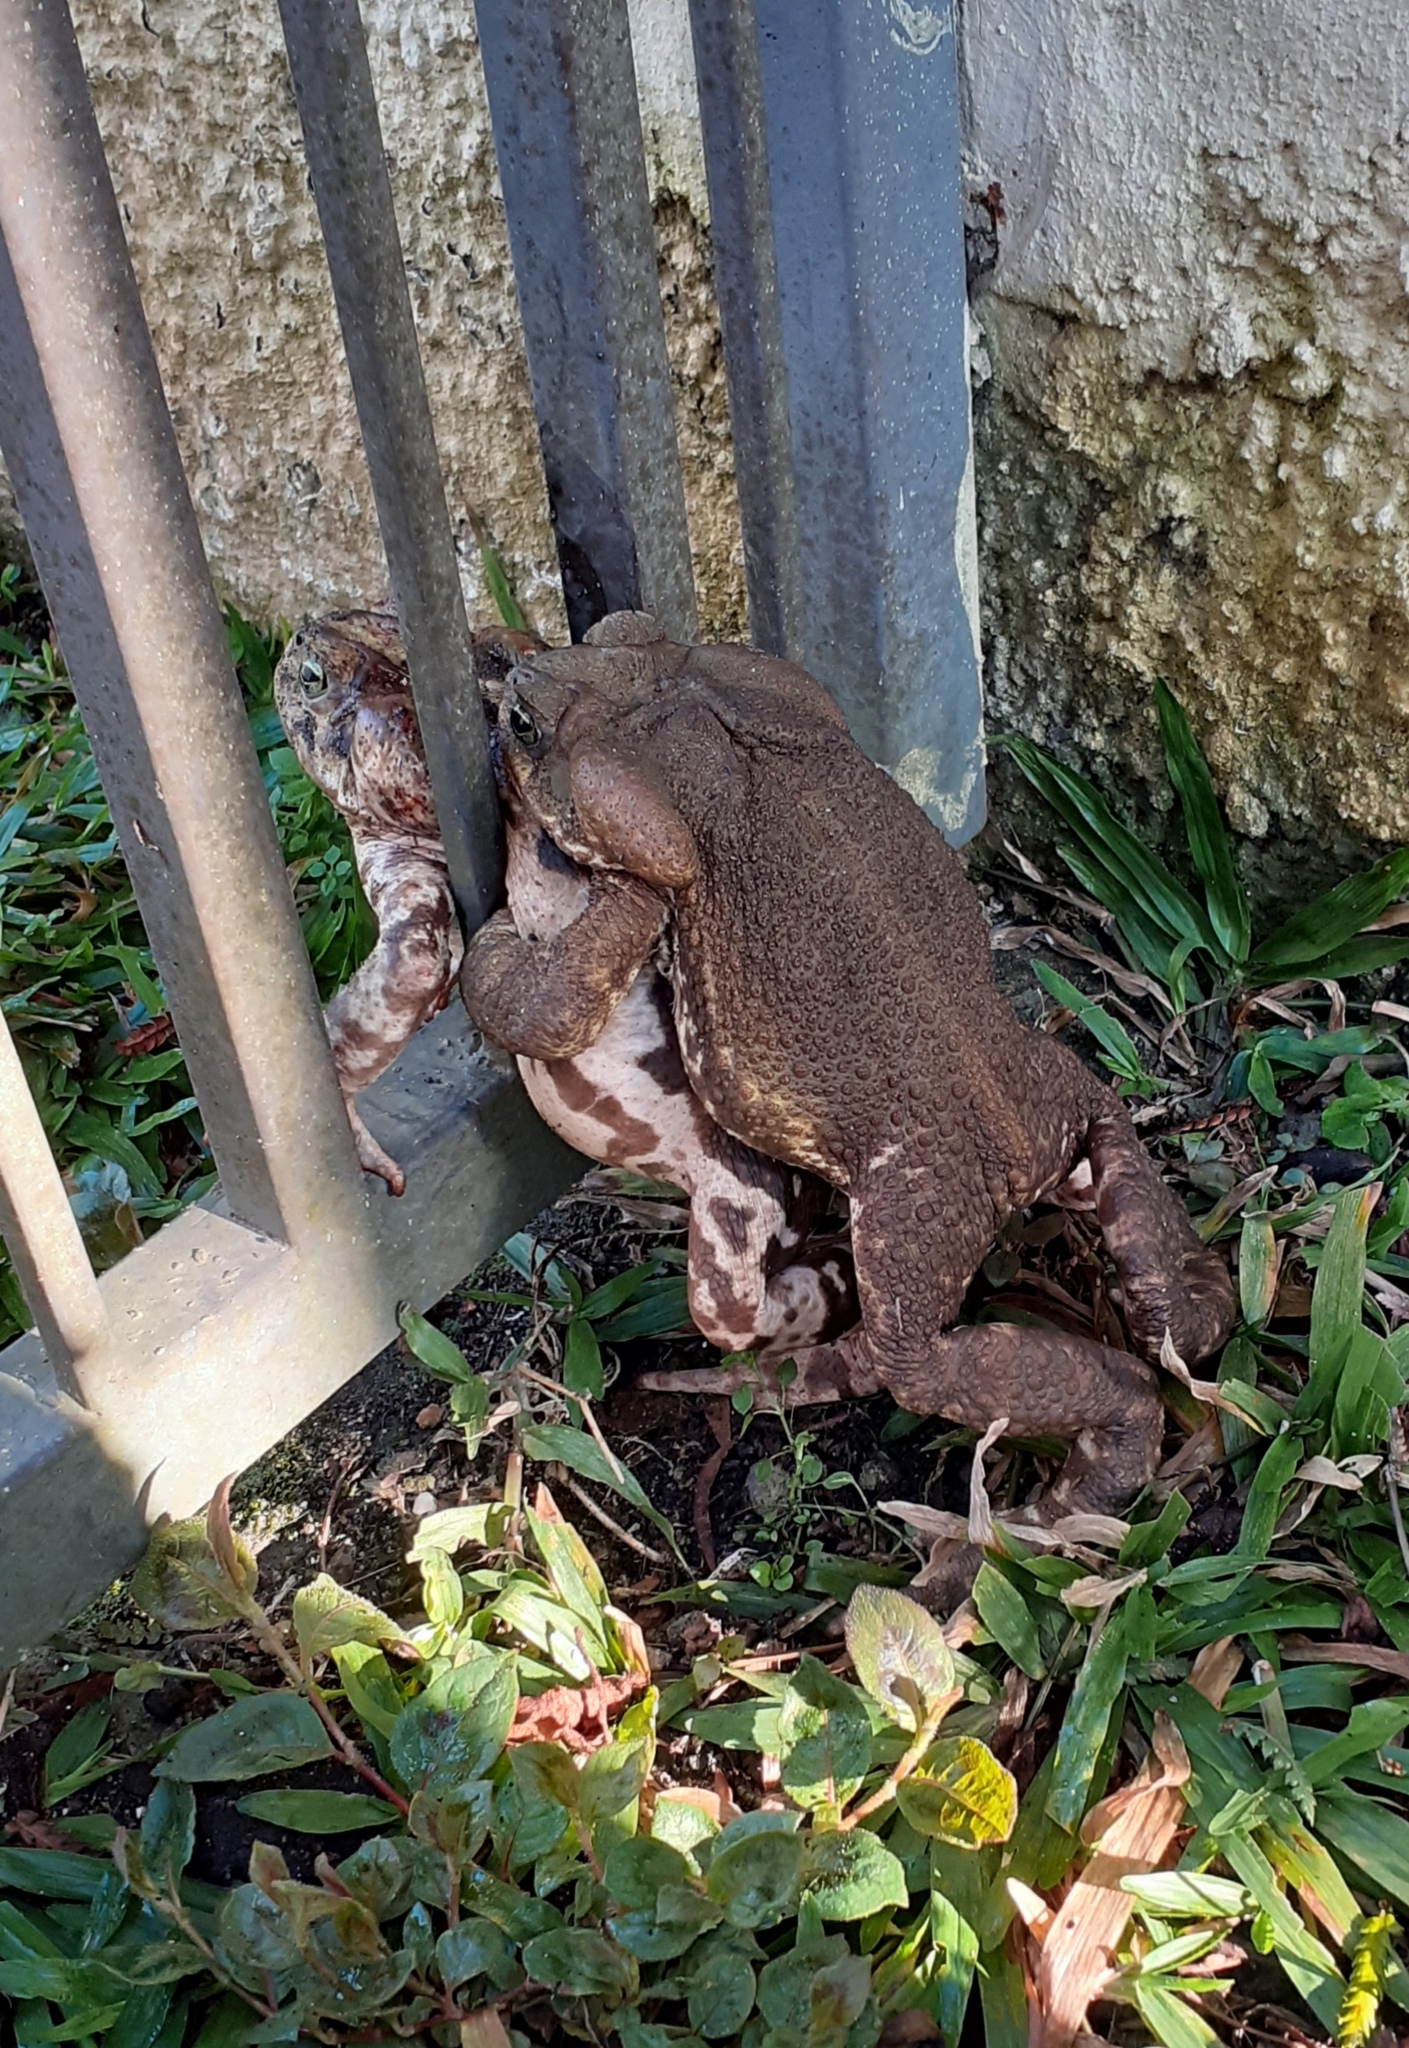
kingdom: Animalia
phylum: Chordata
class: Amphibia
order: Anura
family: Bufonidae
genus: Rhinella
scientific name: Rhinella icterica
